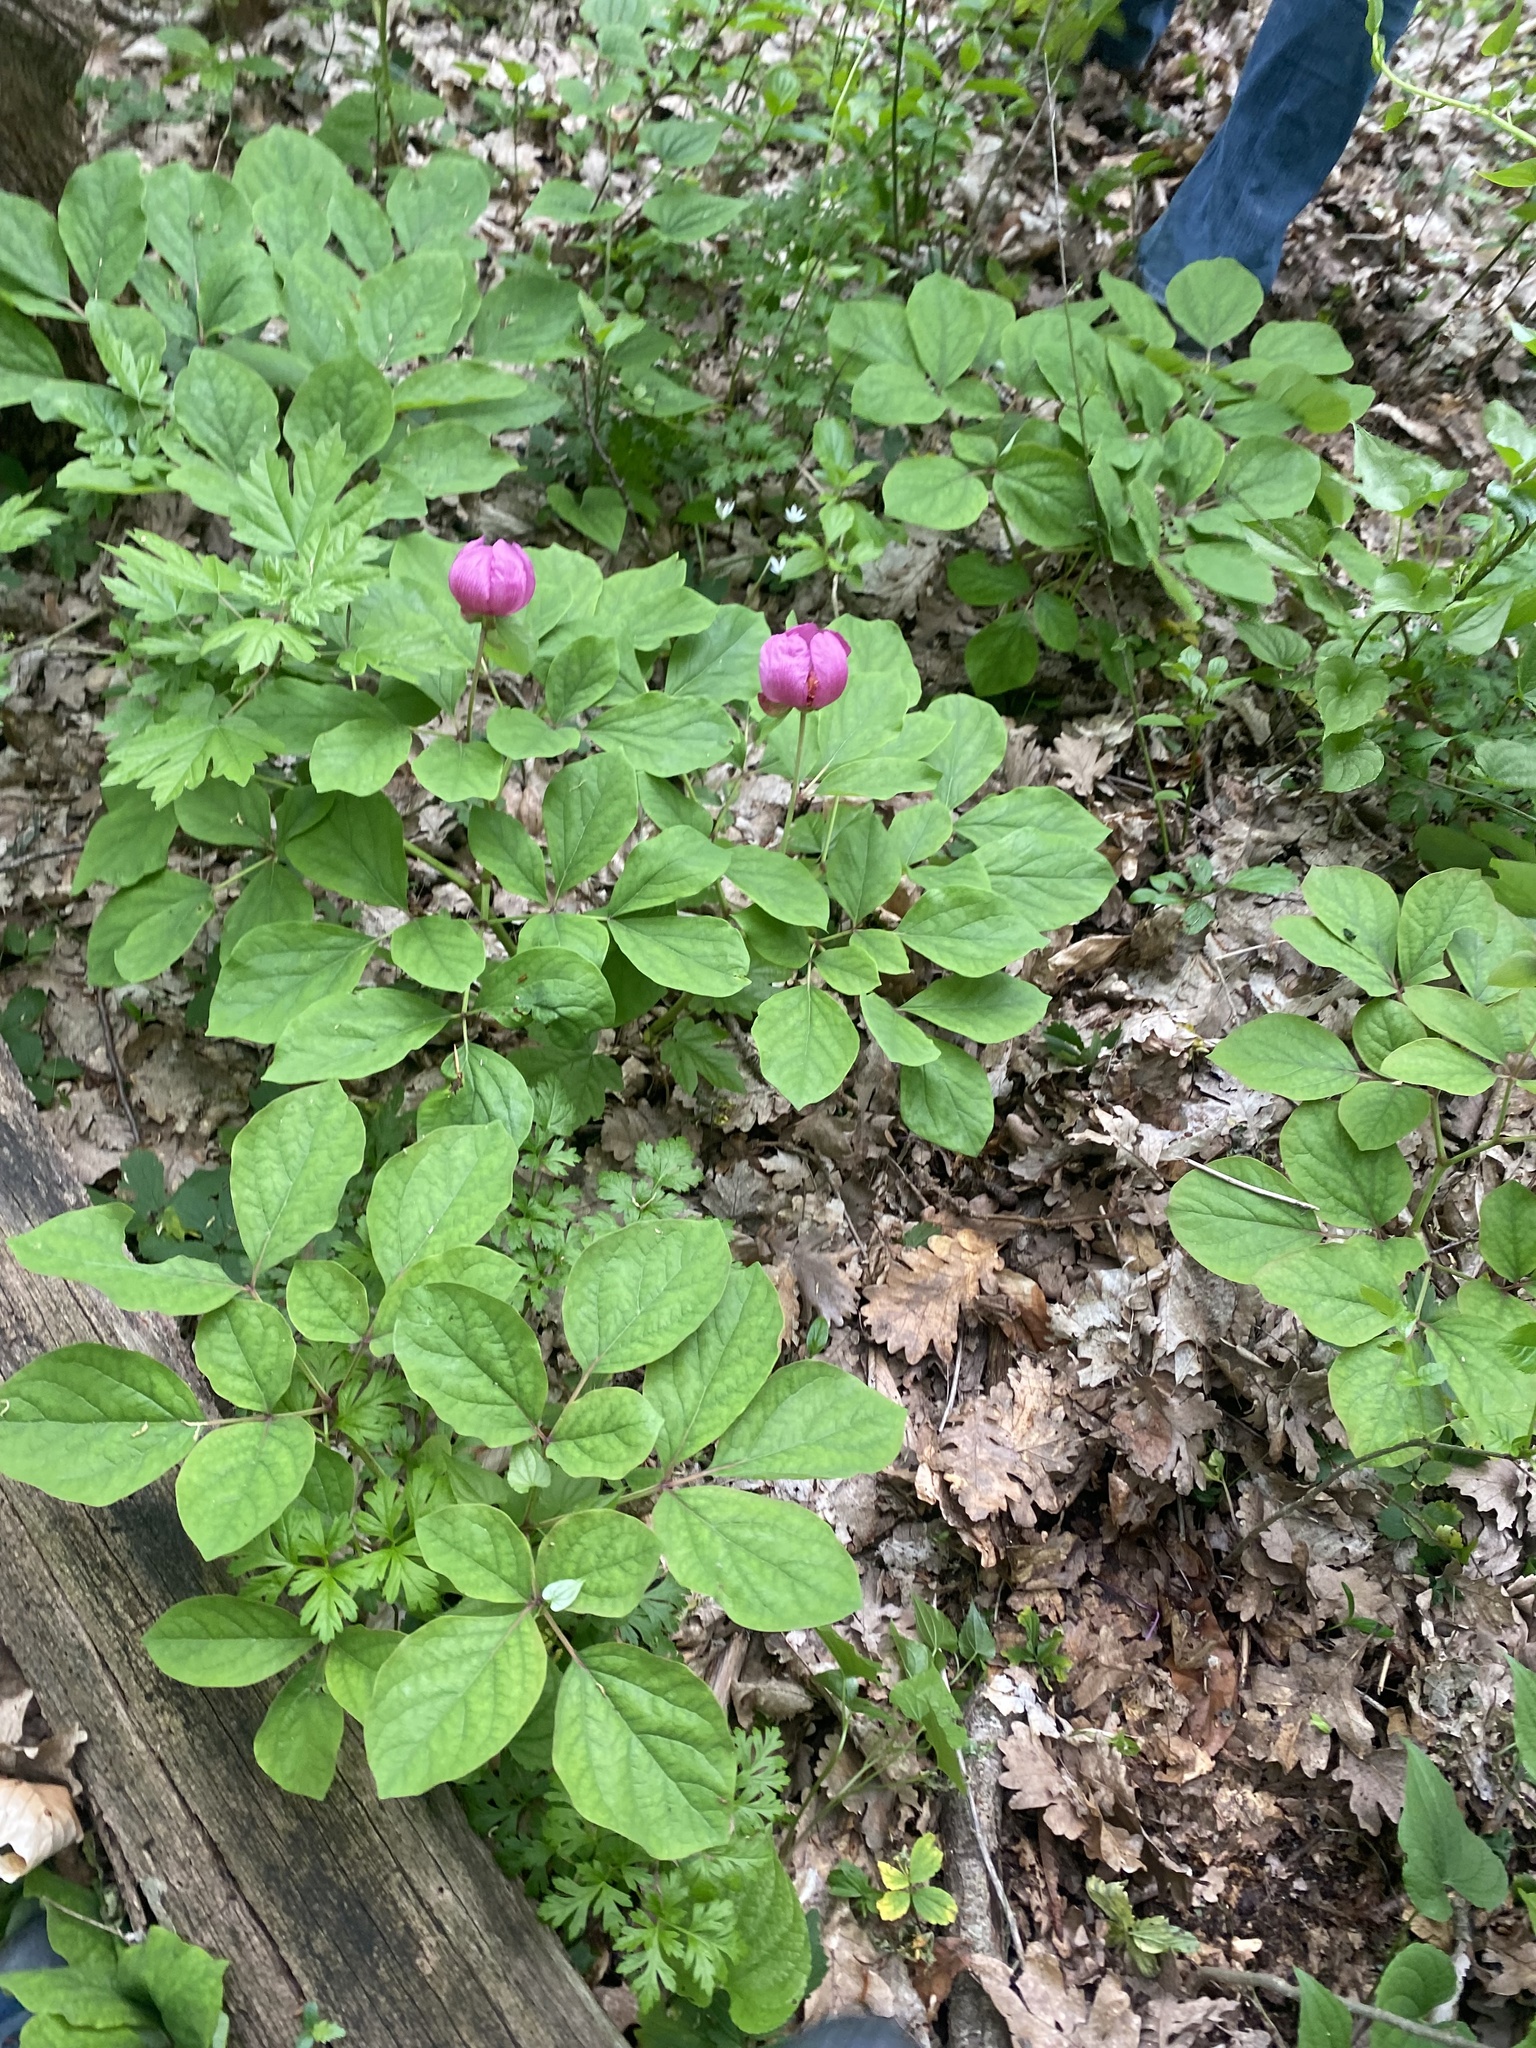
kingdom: Plantae
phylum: Tracheophyta
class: Magnoliopsida
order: Saxifragales
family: Paeoniaceae
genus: Paeonia
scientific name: Paeonia caucasica
